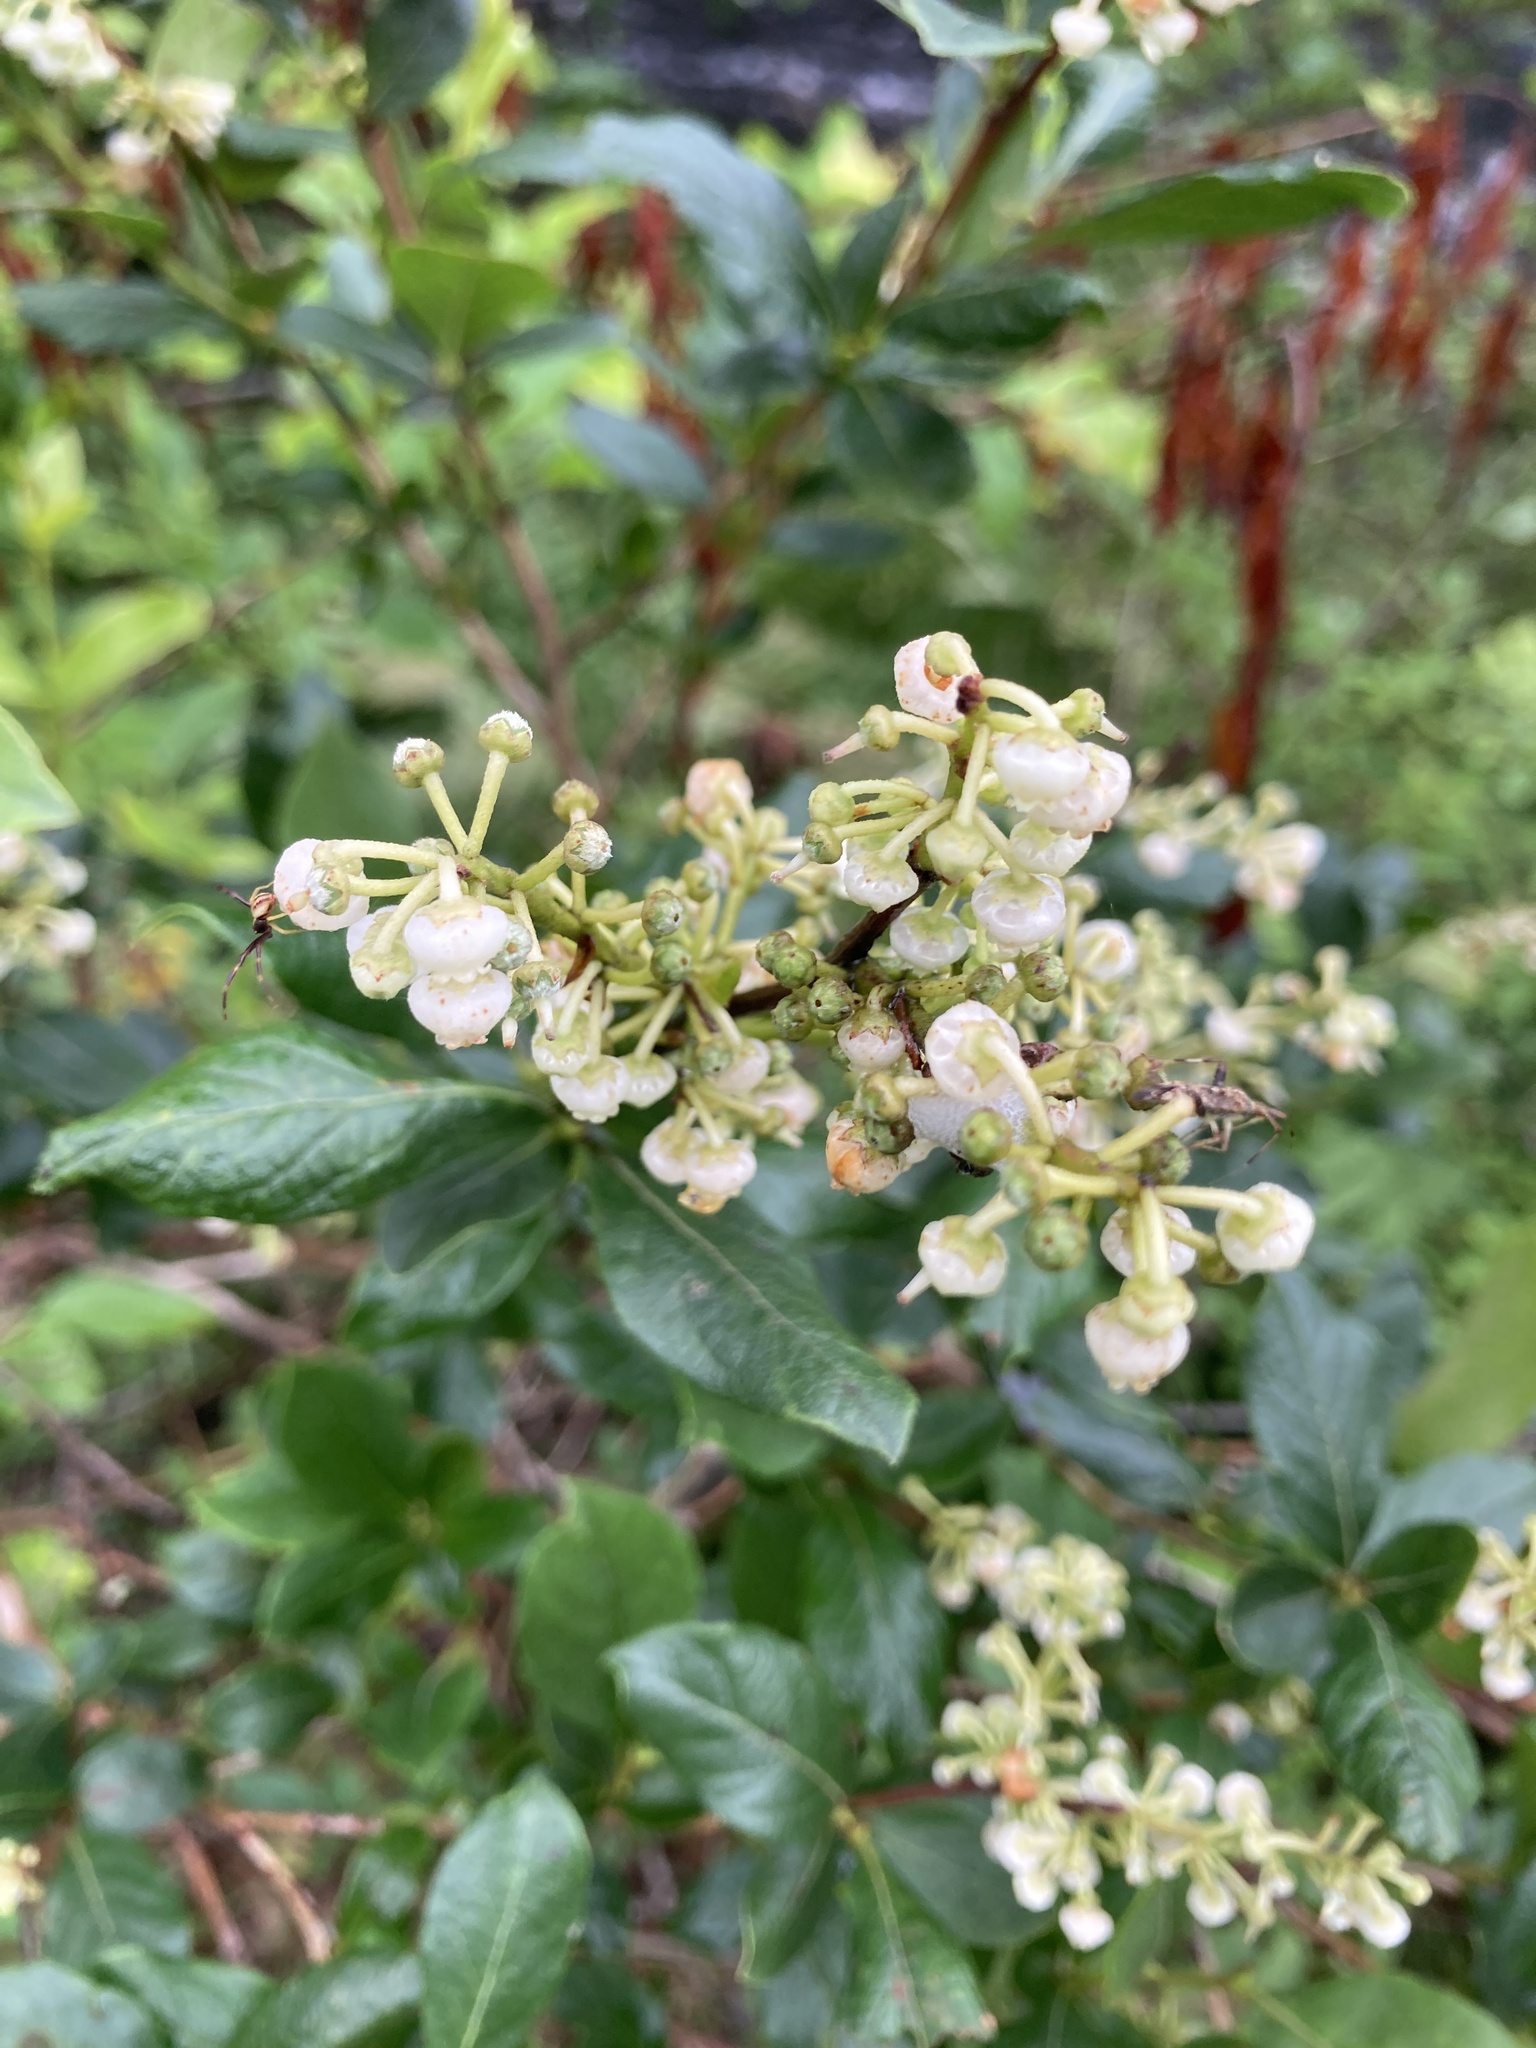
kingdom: Plantae
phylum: Tracheophyta
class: Magnoliopsida
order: Ericales
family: Ericaceae
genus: Lyonia
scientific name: Lyonia ligustrina
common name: Maleberry
